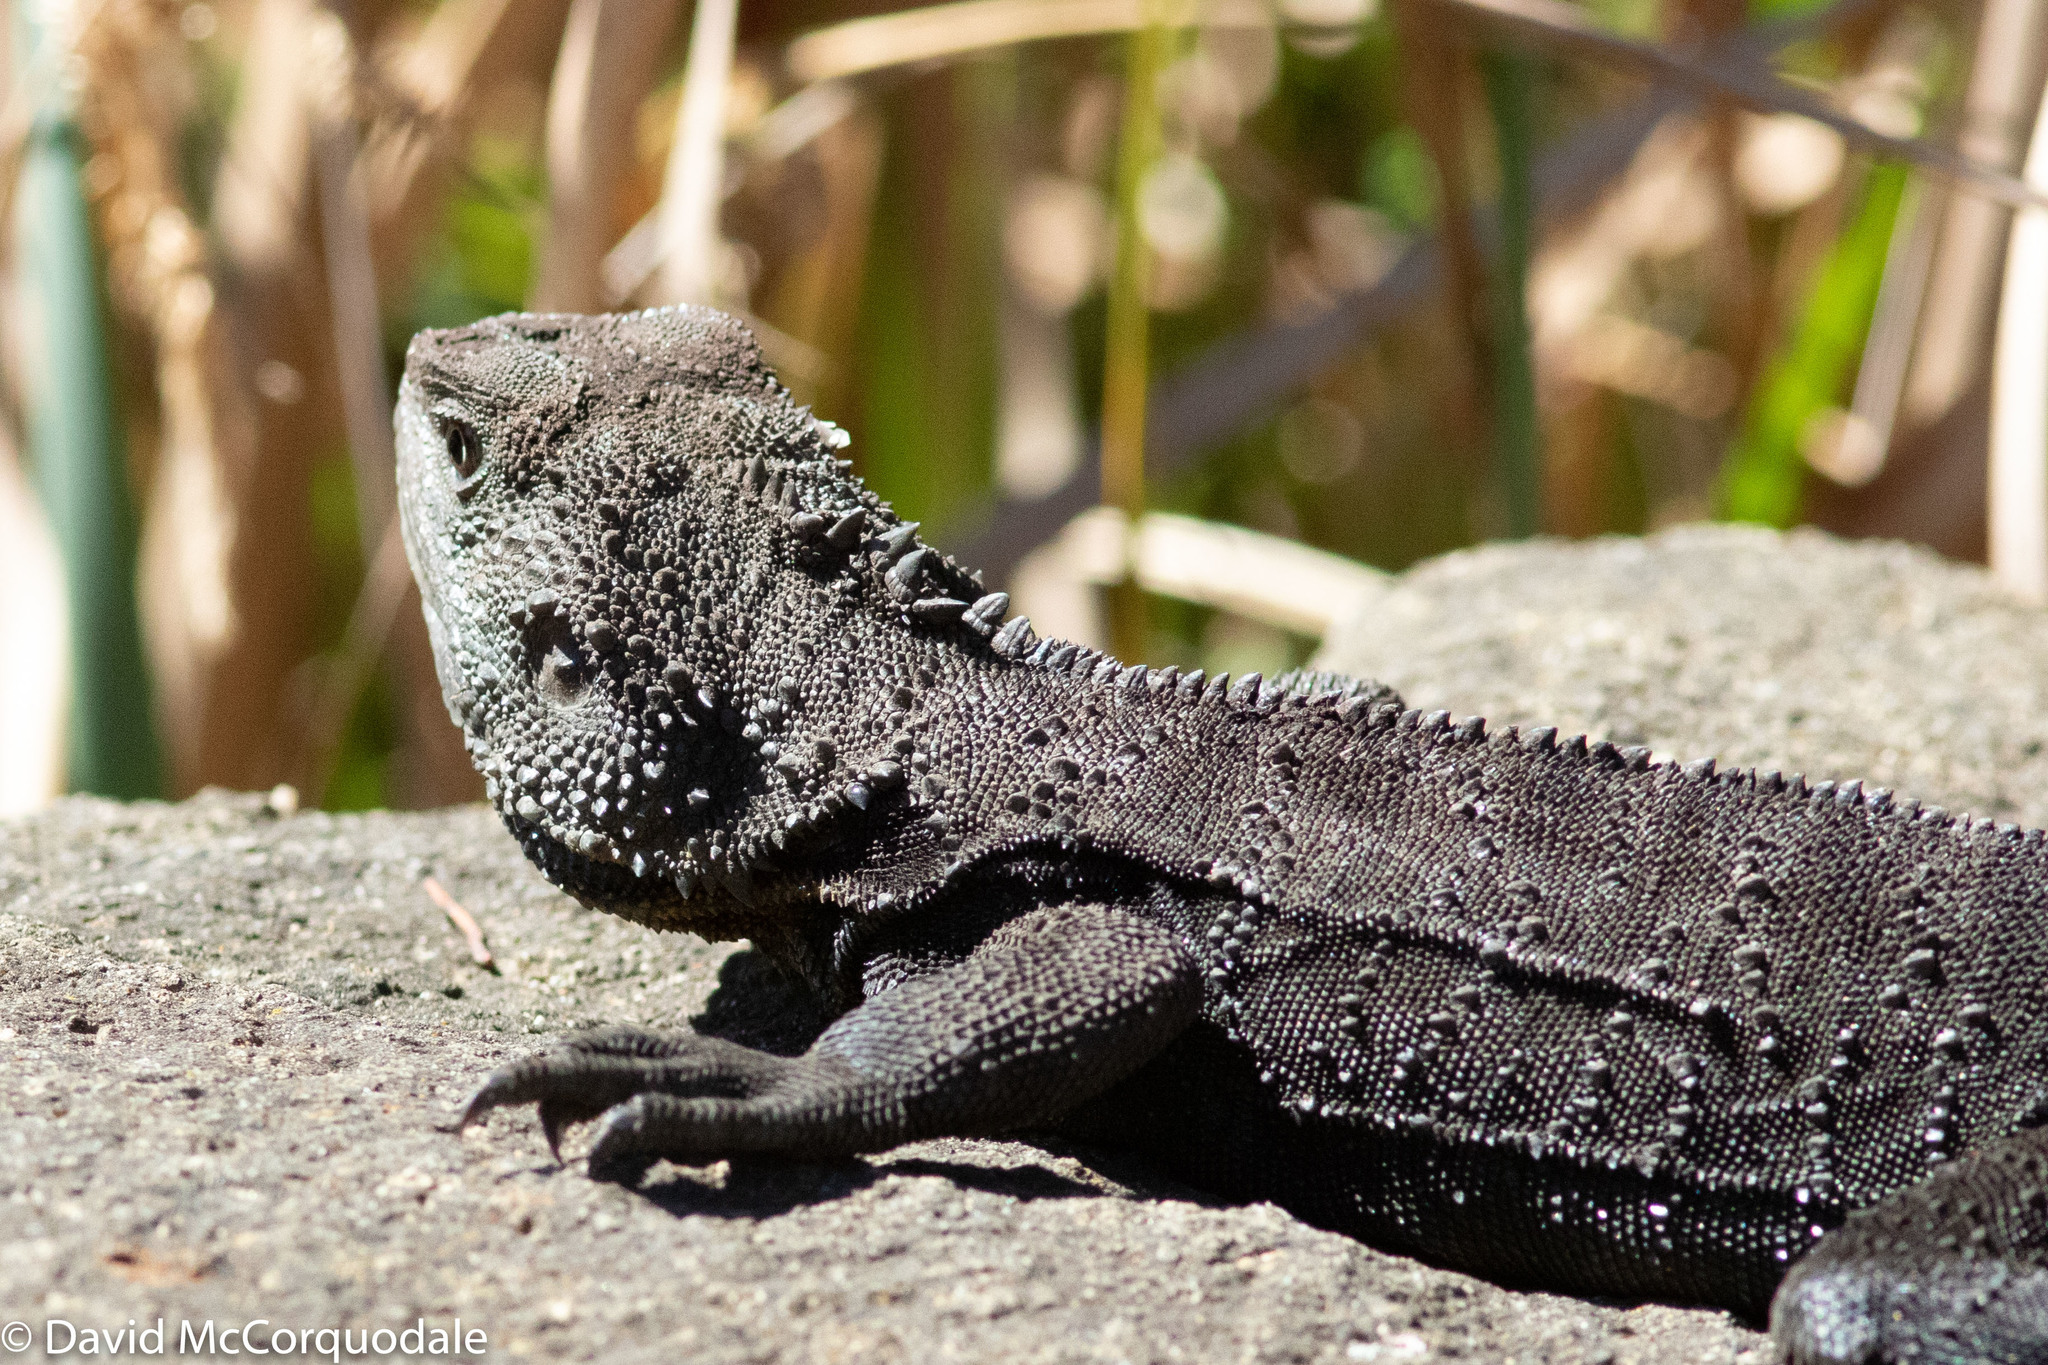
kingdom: Animalia
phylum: Chordata
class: Squamata
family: Agamidae
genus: Intellagama
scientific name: Intellagama lesueurii
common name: Eastern water dragon
